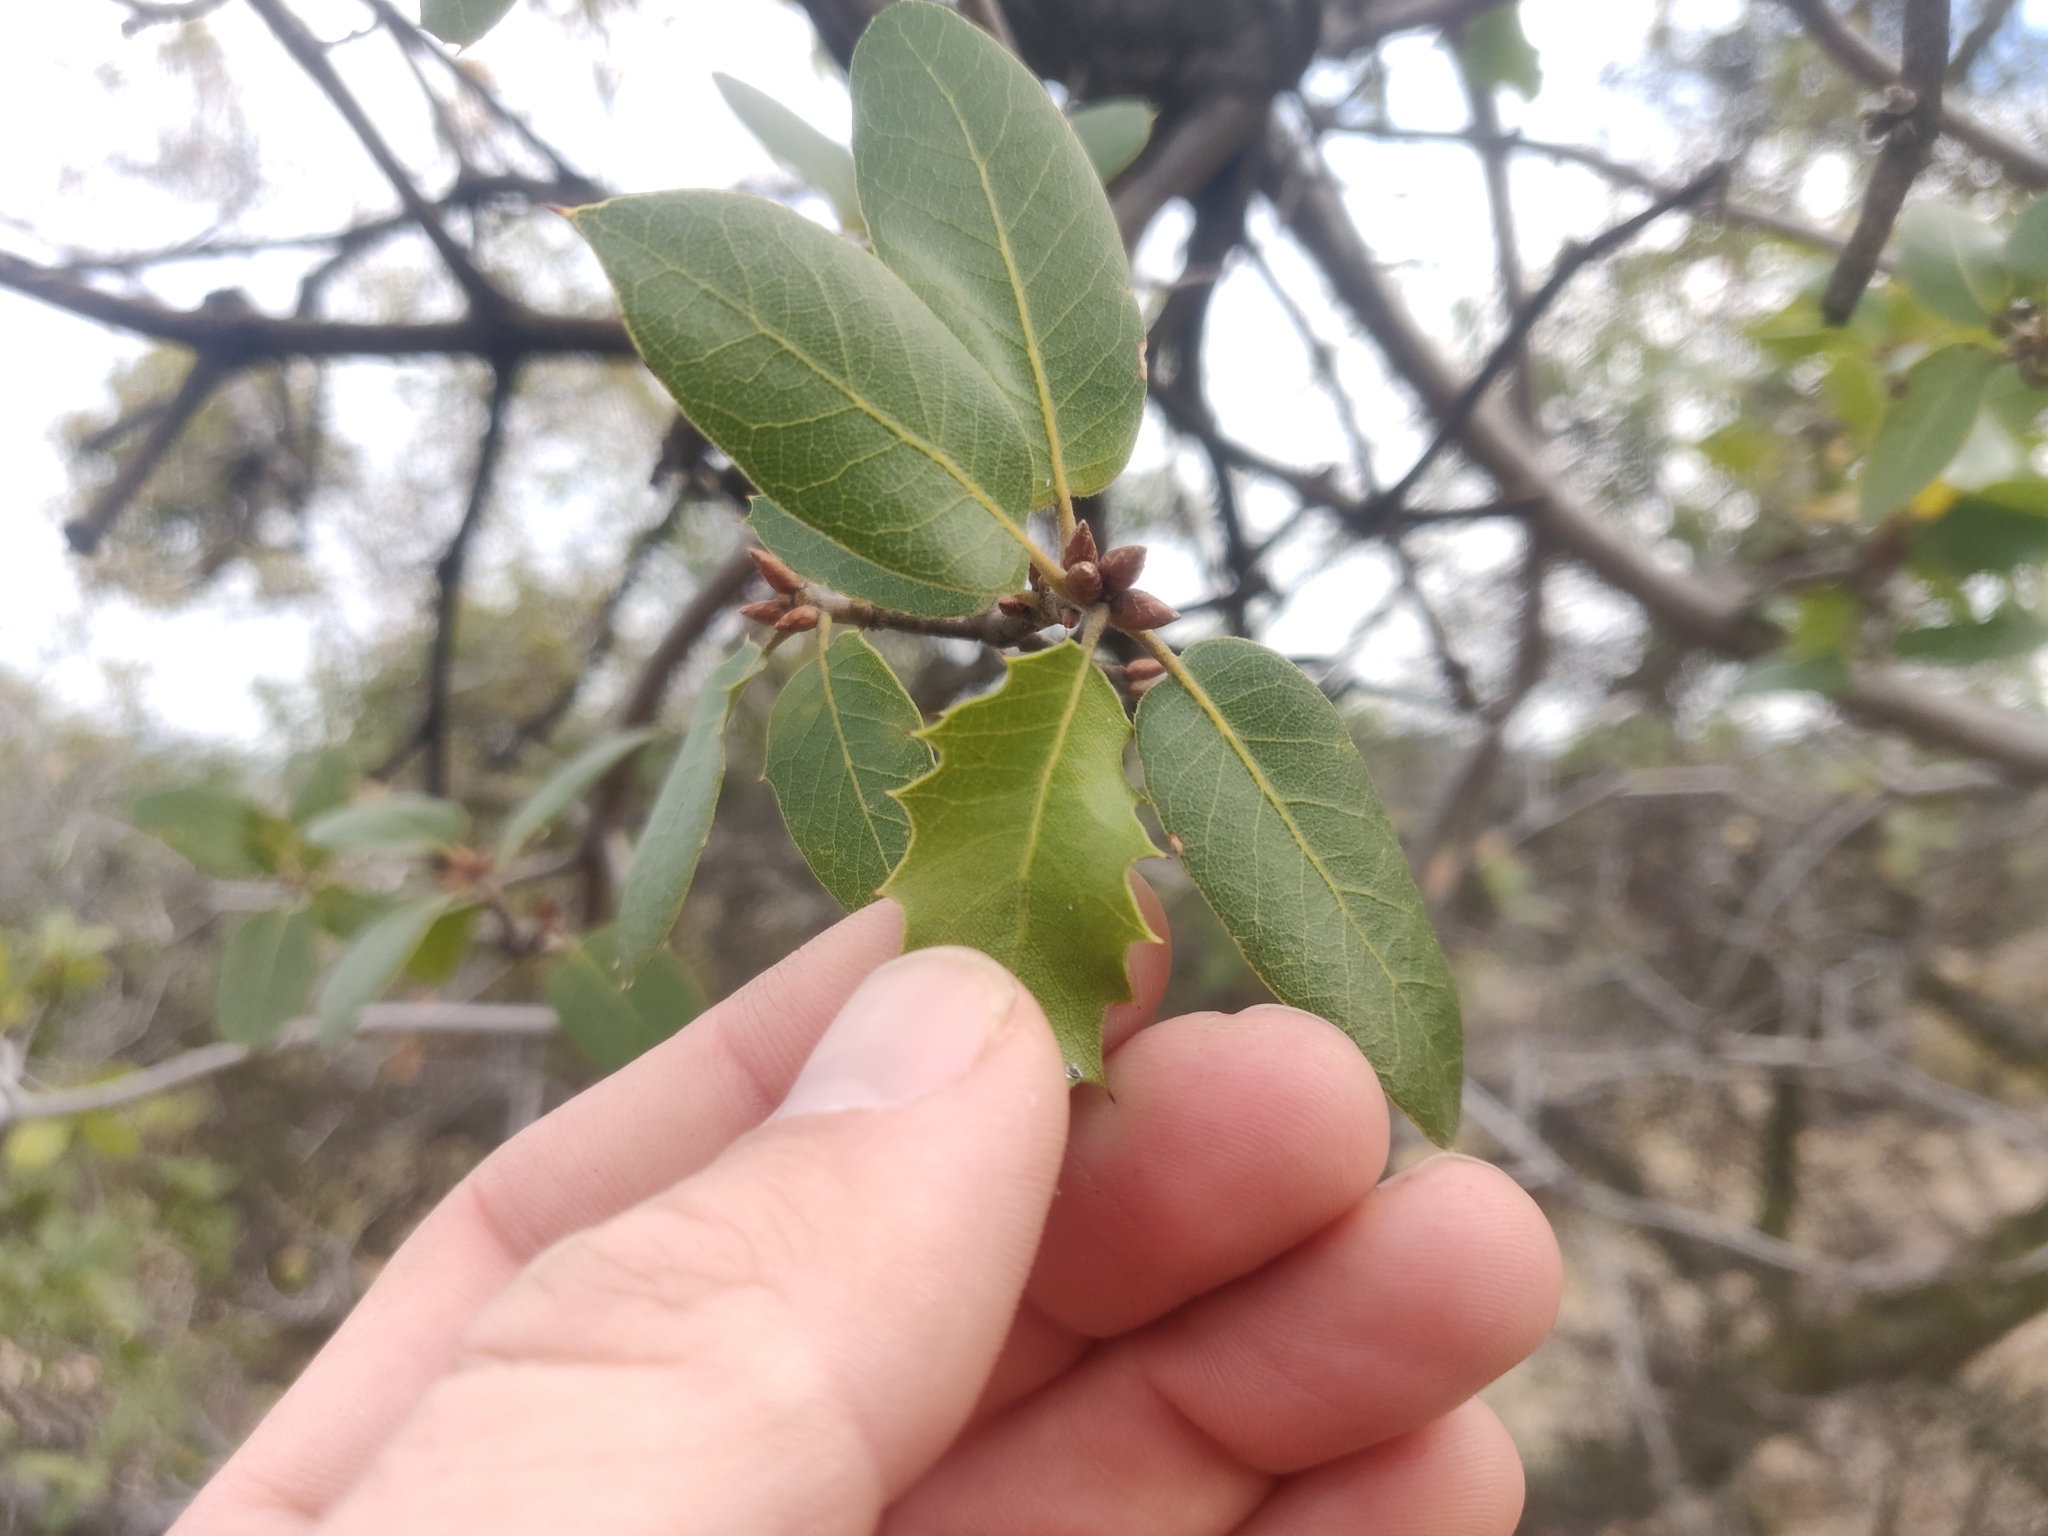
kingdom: Plantae
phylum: Tracheophyta
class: Magnoliopsida
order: Fagales
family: Fagaceae
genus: Quercus
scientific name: Quercus wislizeni
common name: Interior live oak
